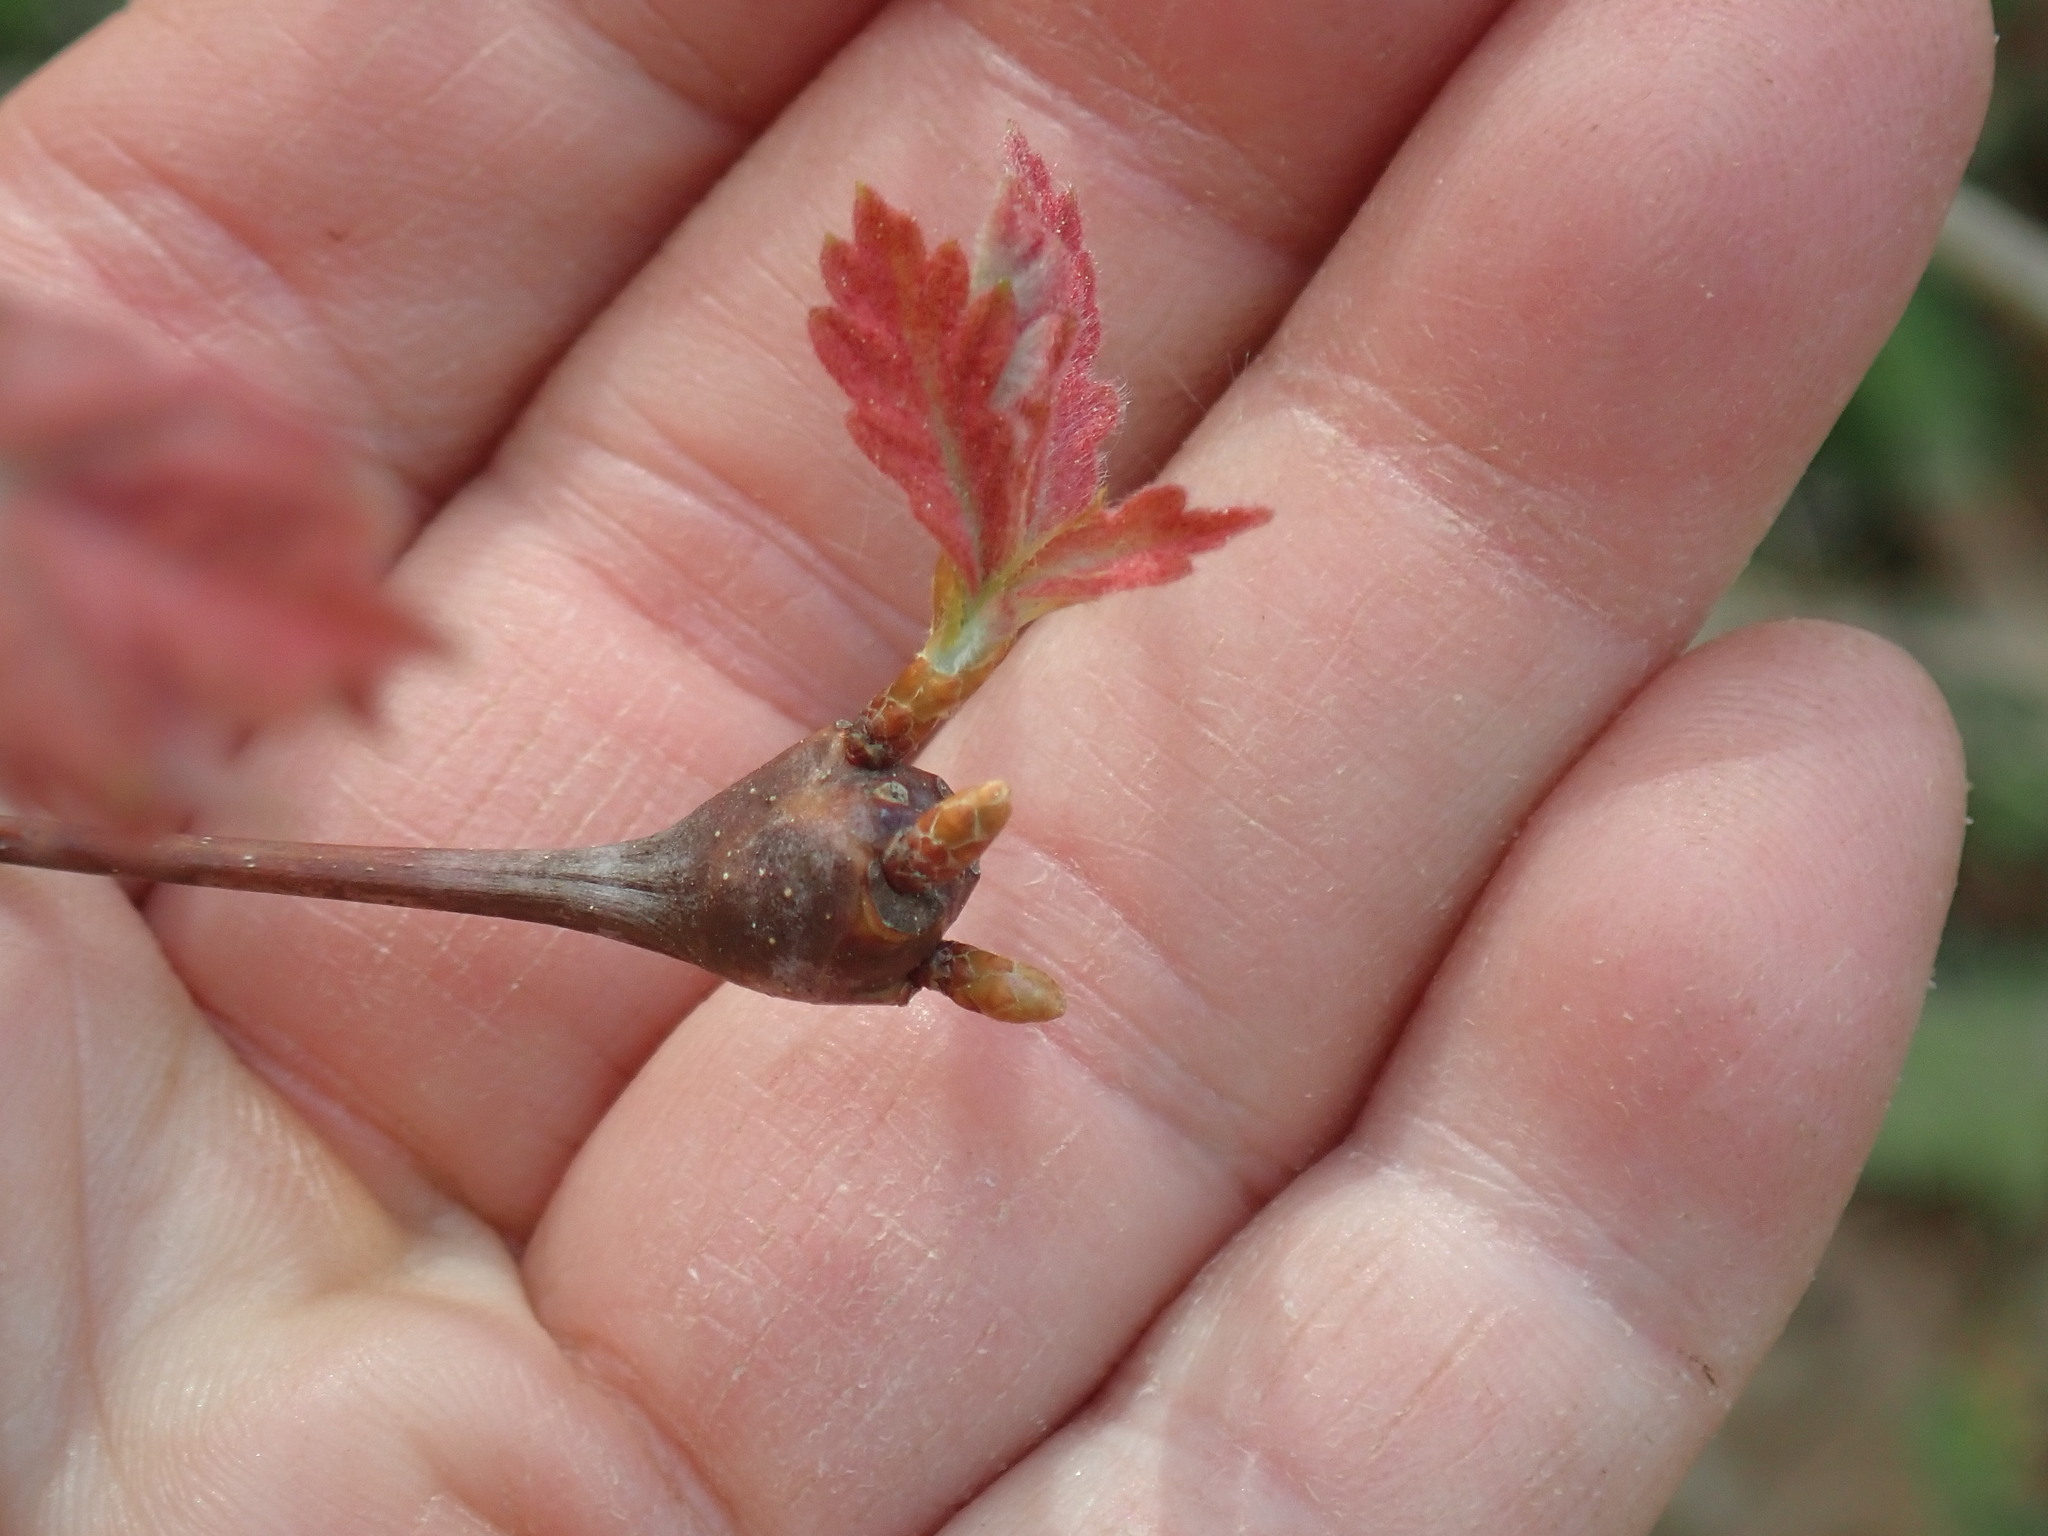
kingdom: Animalia
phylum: Arthropoda
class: Insecta
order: Hymenoptera
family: Cynipidae
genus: Callirhytis
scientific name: Callirhytis clavula
